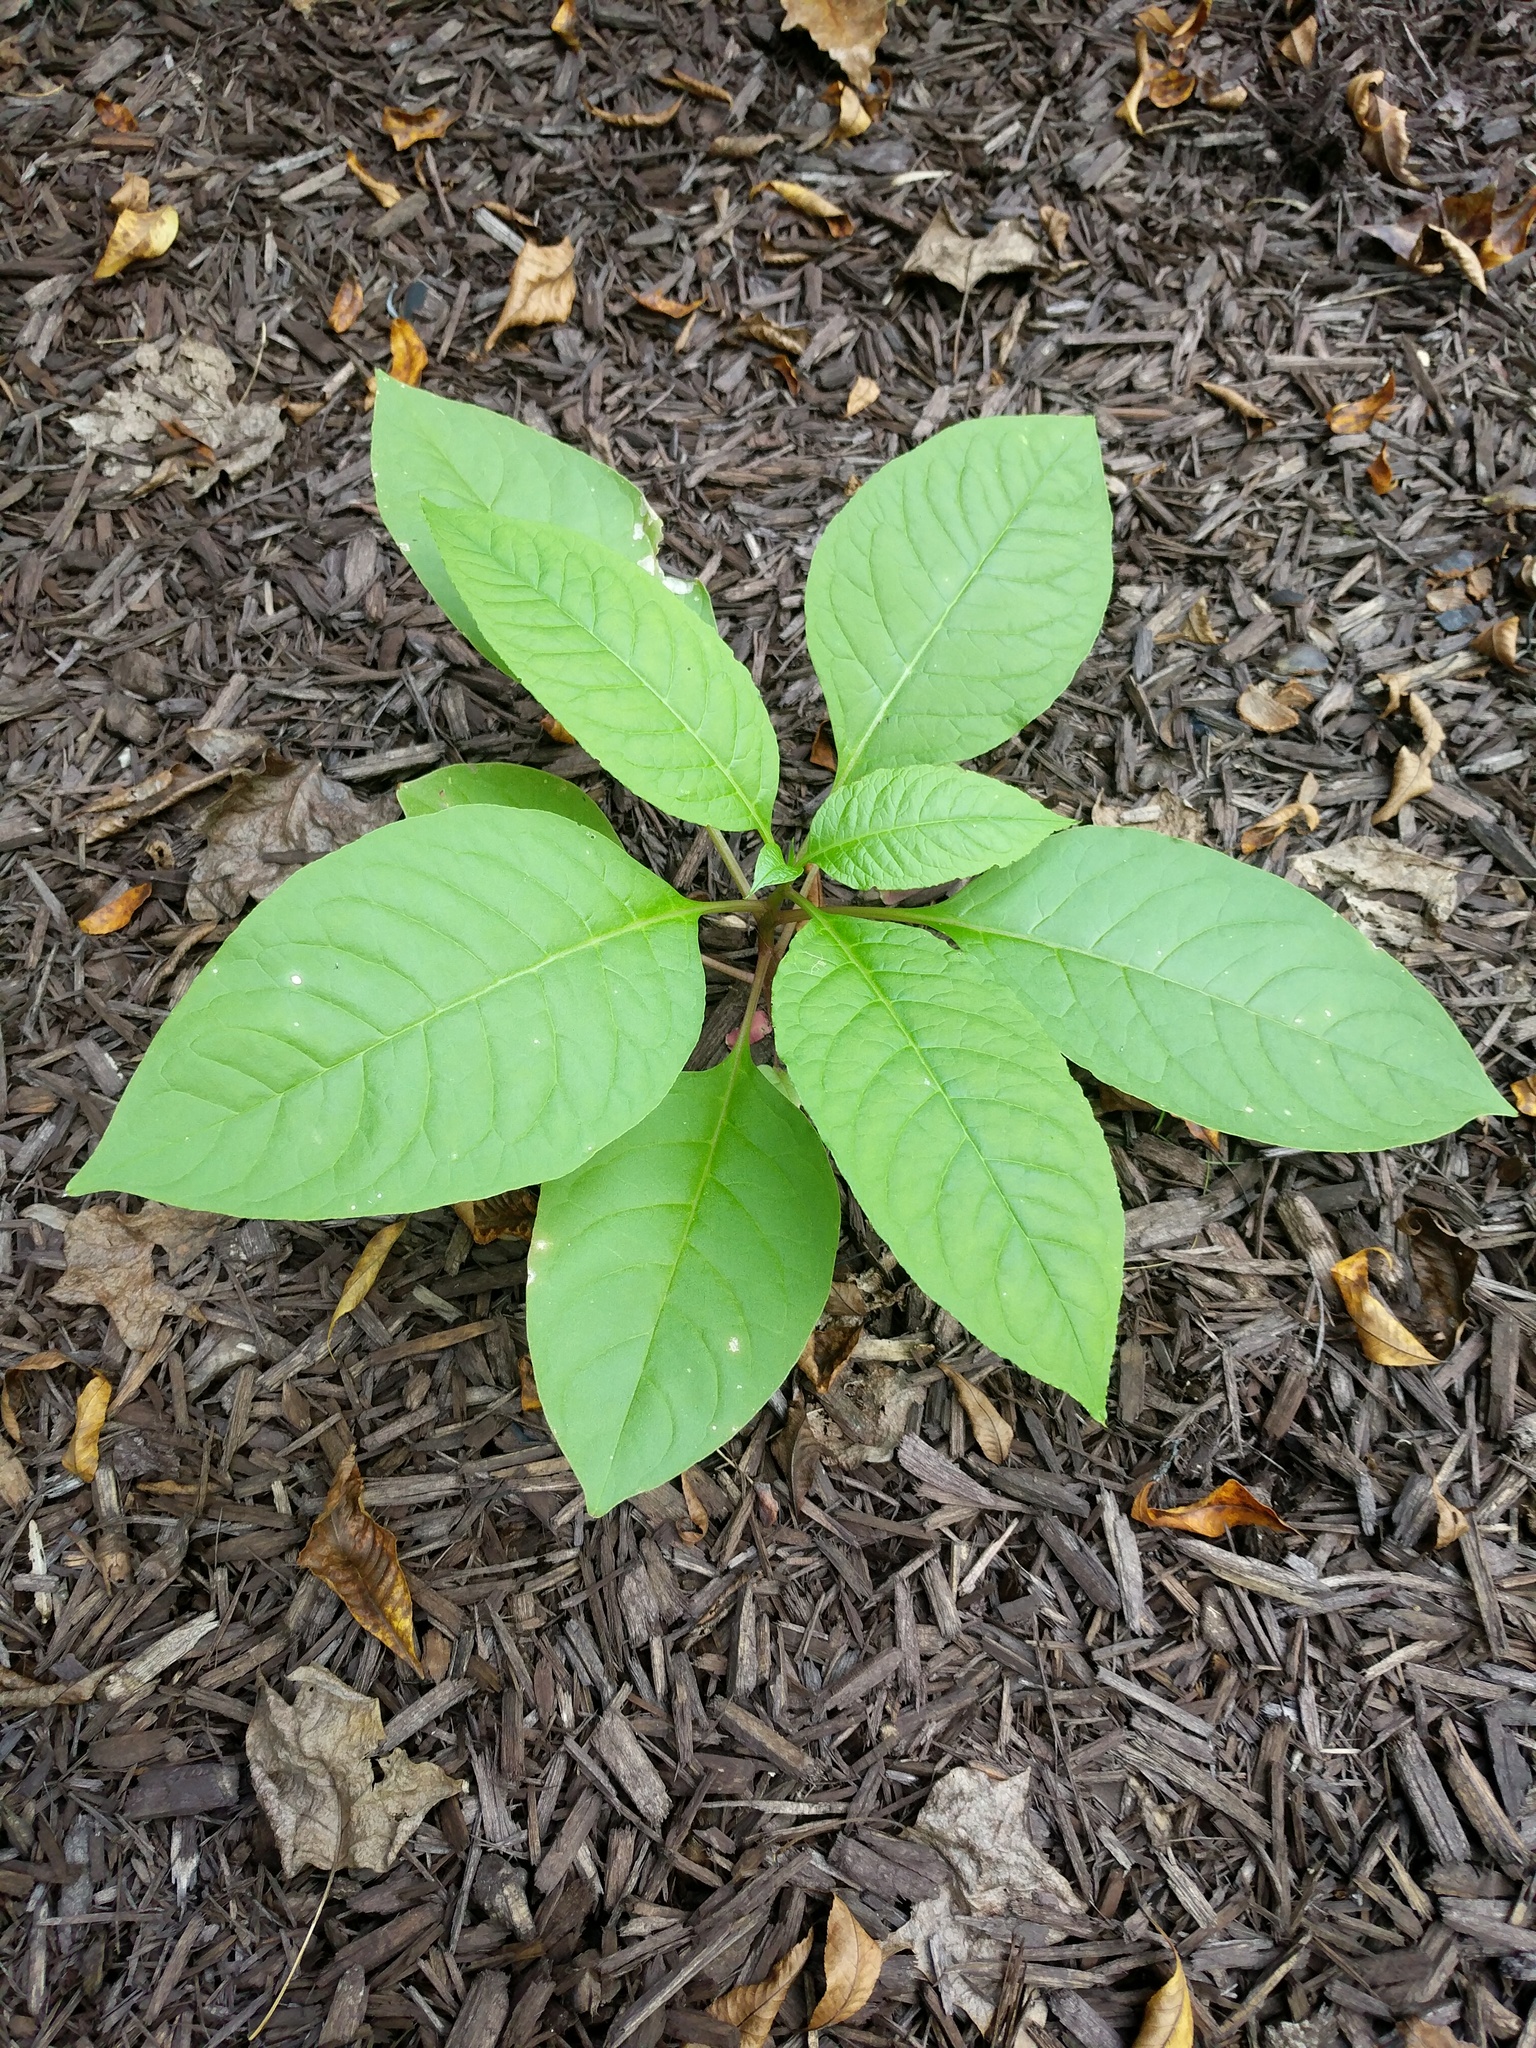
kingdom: Plantae
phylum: Tracheophyta
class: Magnoliopsida
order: Caryophyllales
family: Phytolaccaceae
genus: Phytolacca
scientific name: Phytolacca americana
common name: American pokeweed
